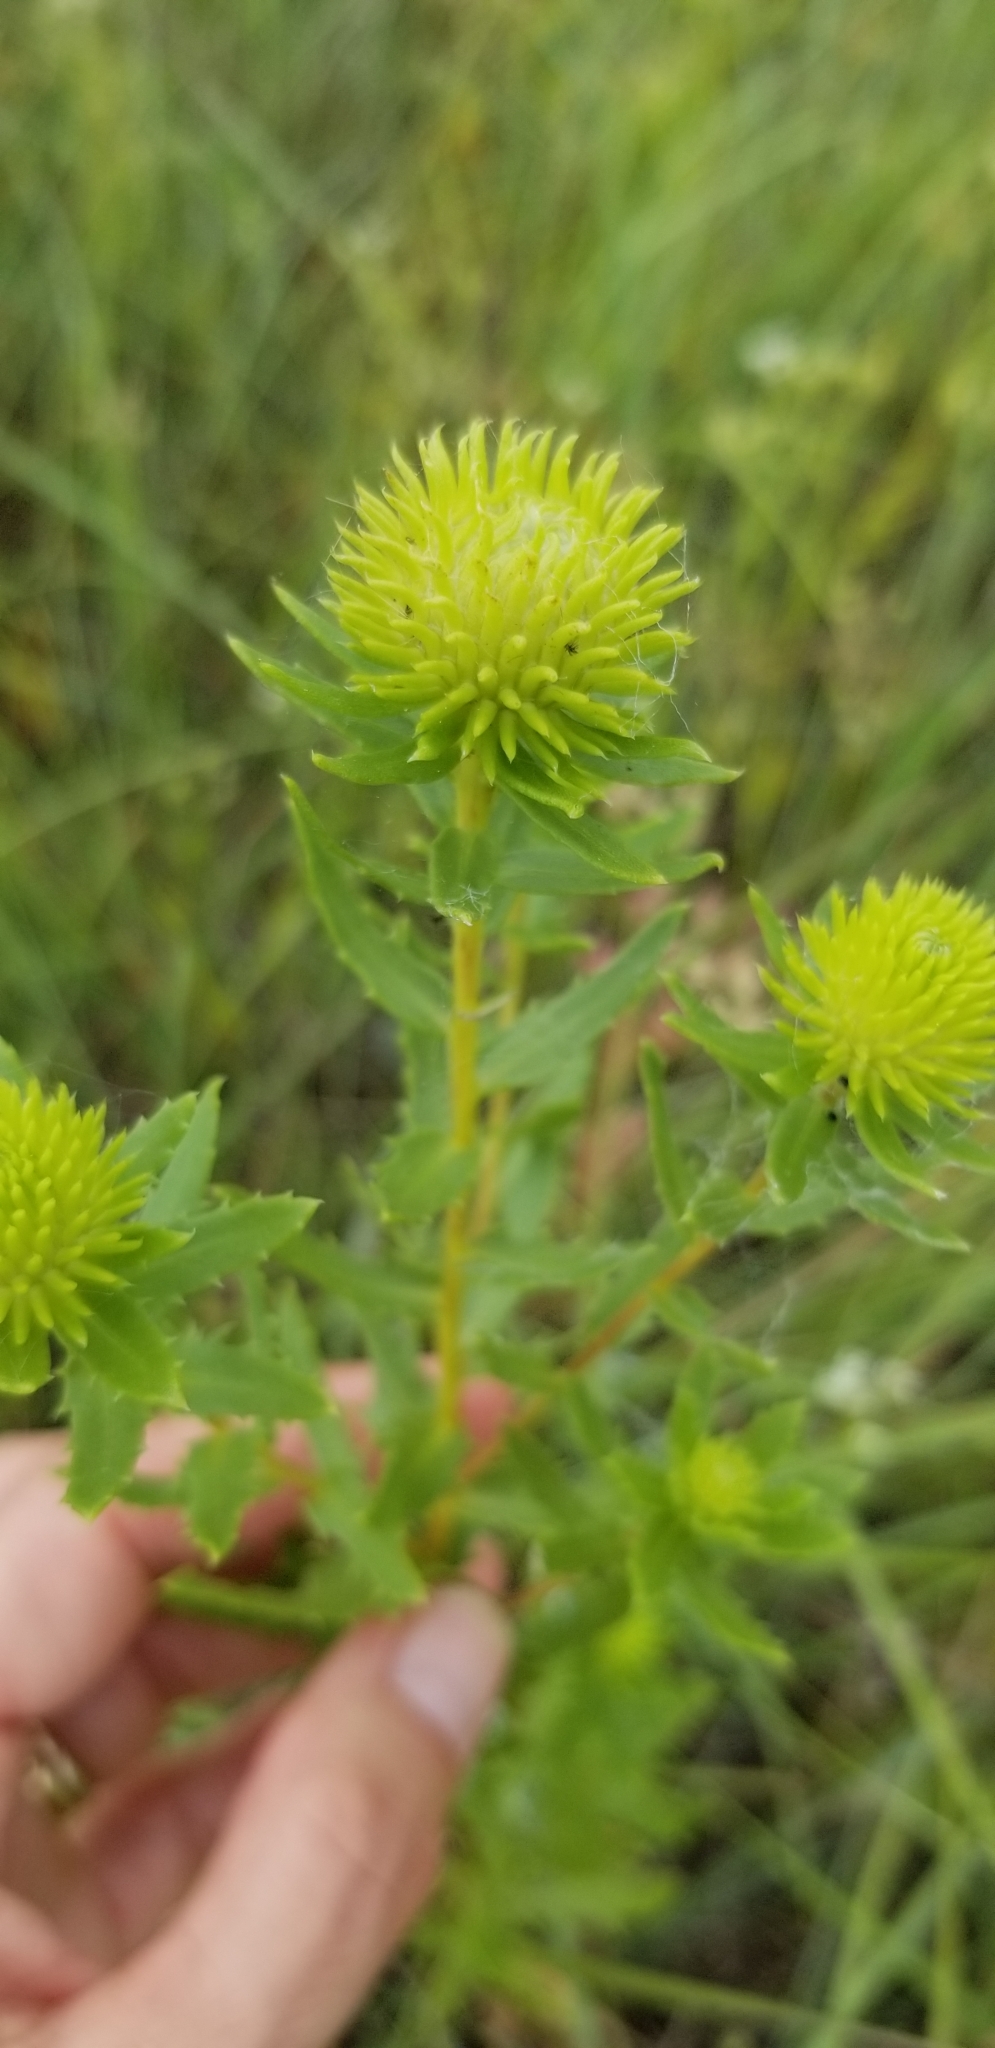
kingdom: Plantae
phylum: Tracheophyta
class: Magnoliopsida
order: Asterales
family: Asteraceae
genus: Grindelia
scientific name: Grindelia lanceolata
